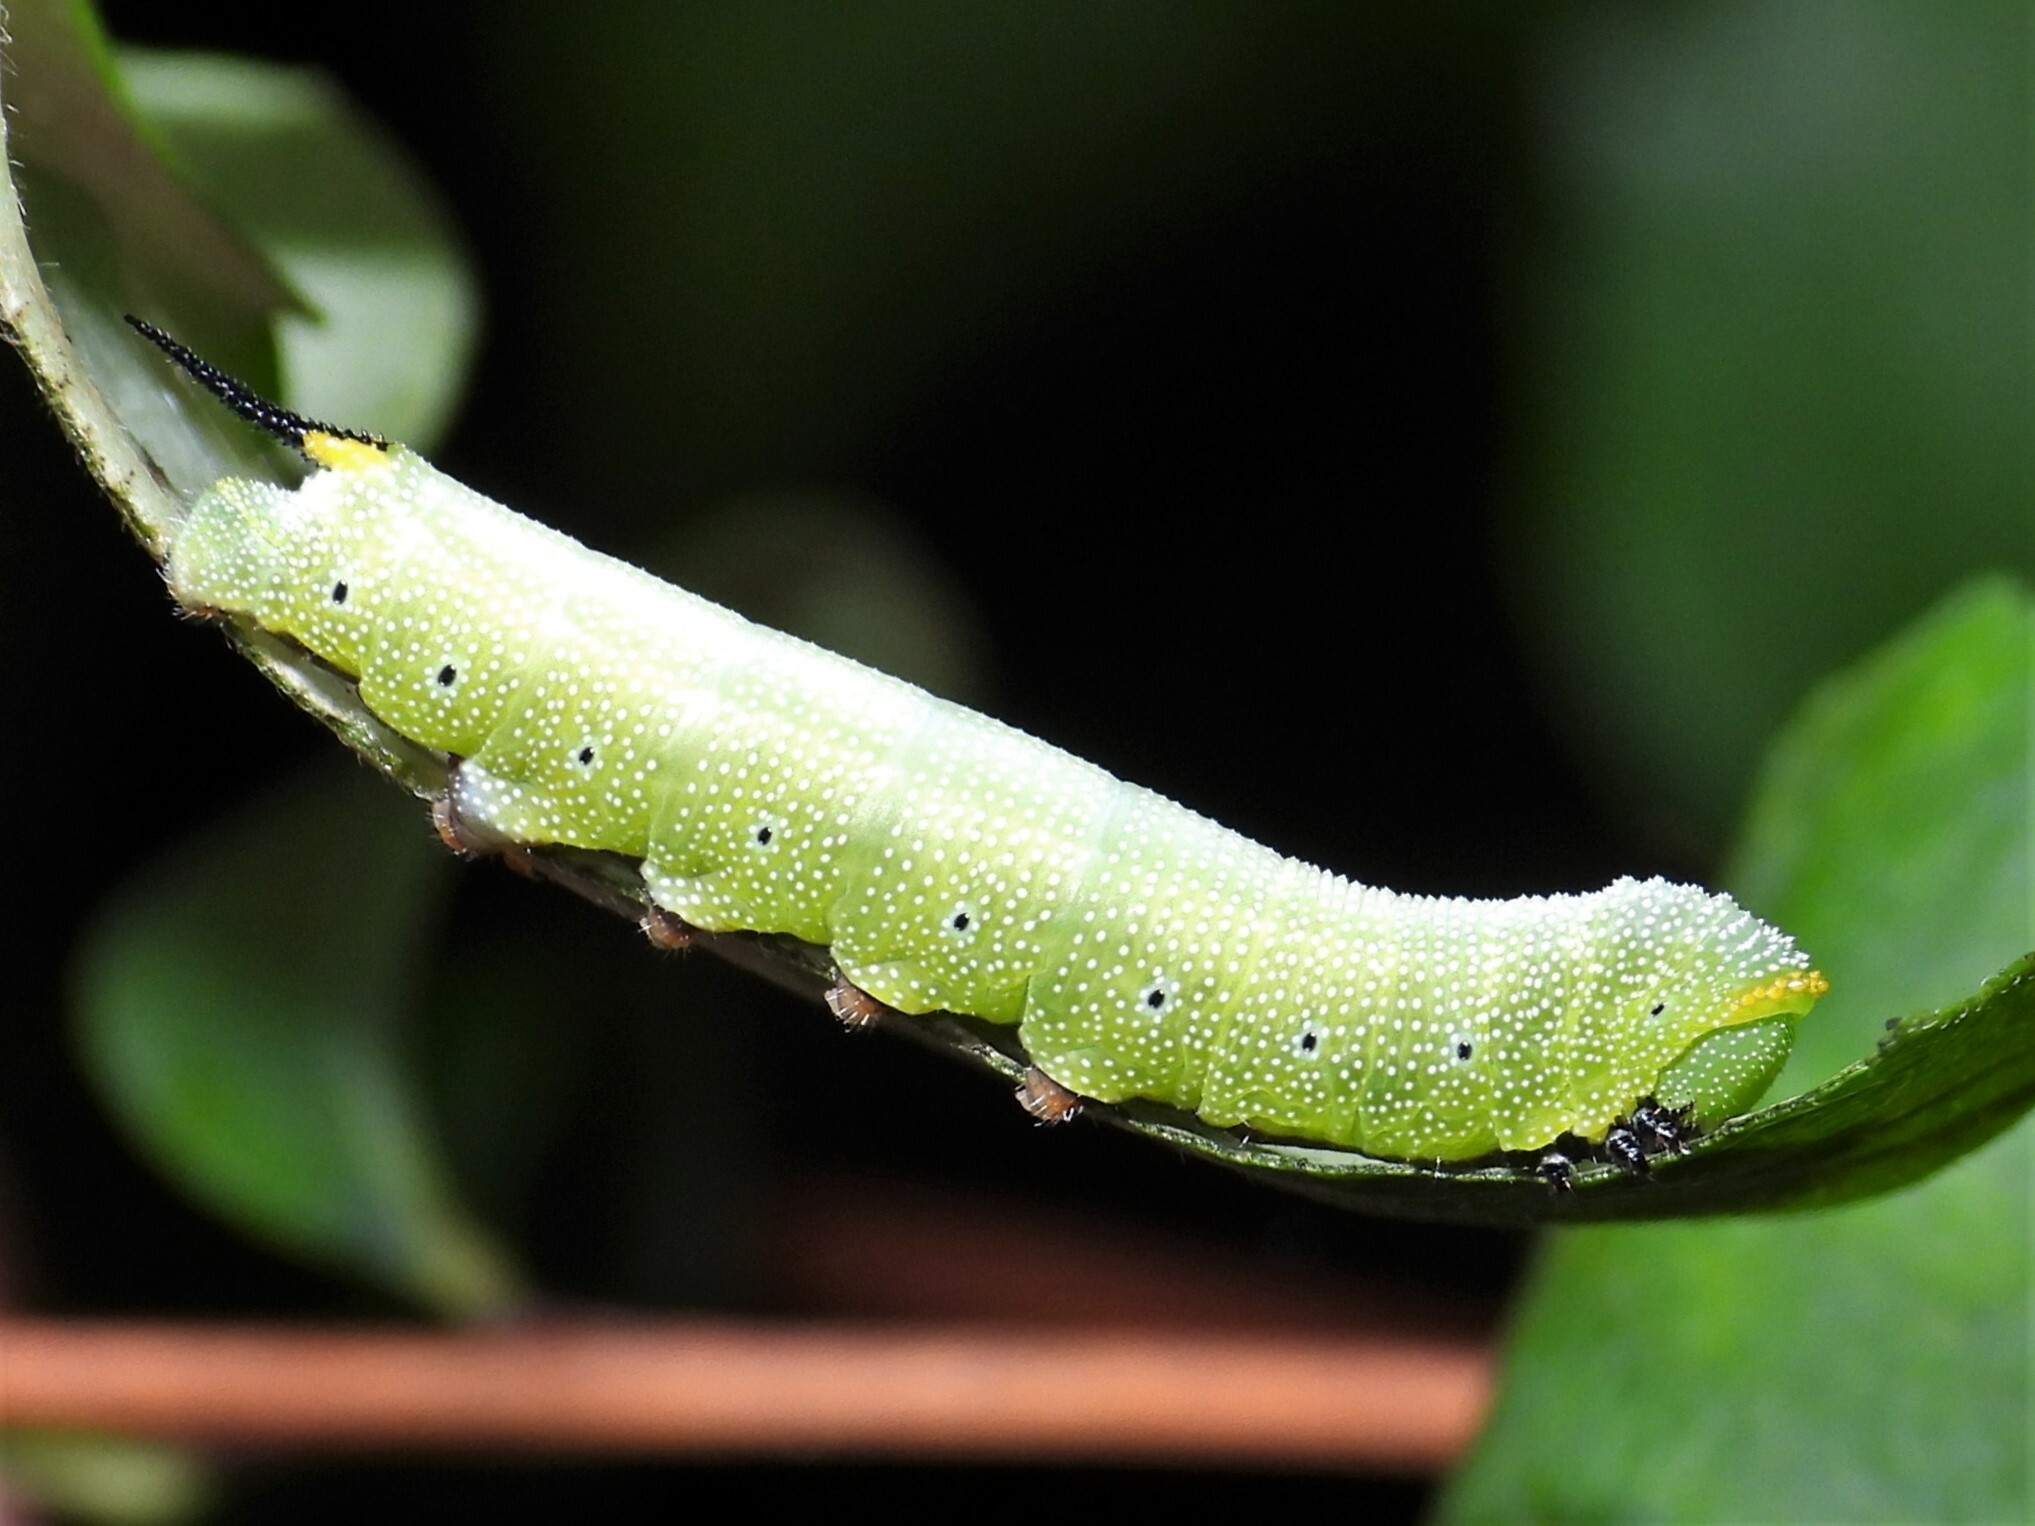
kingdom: Animalia
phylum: Arthropoda
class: Insecta
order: Lepidoptera
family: Sphingidae
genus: Hemaris
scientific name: Hemaris diffinis
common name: Bumblebee moth
